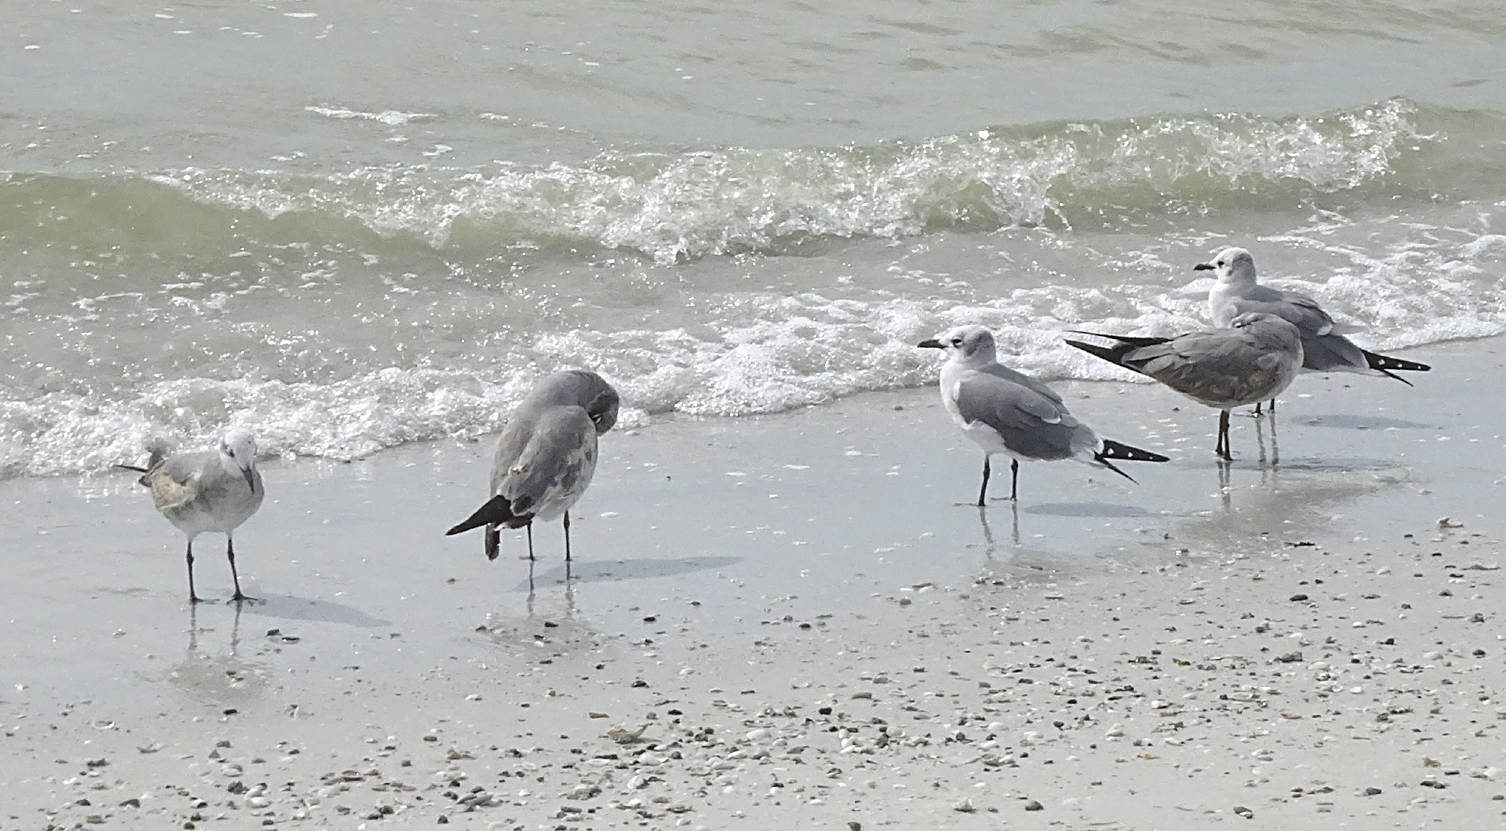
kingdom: Animalia
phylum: Chordata
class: Aves
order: Charadriiformes
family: Laridae
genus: Leucophaeus
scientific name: Leucophaeus atricilla
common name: Laughing gull
